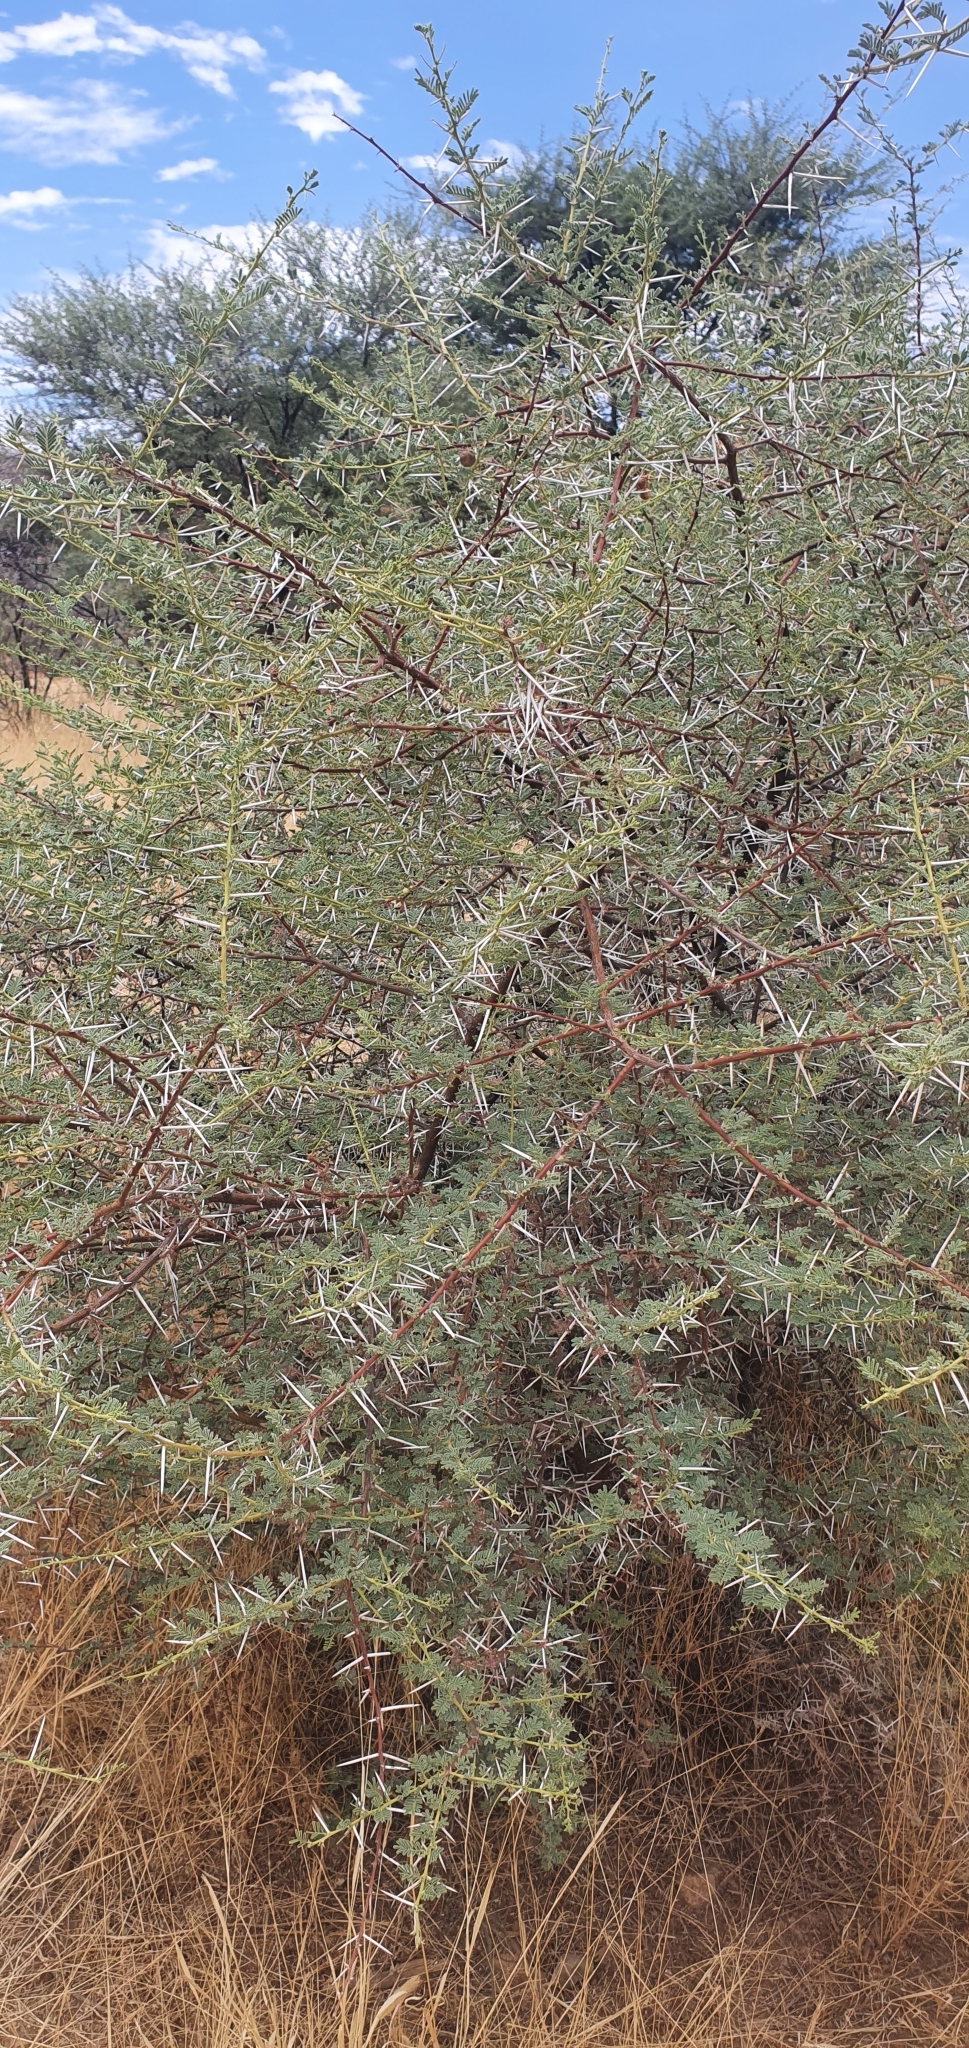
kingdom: Plantae
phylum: Tracheophyta
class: Magnoliopsida
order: Fabales
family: Fabaceae
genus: Vachellia
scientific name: Vachellia tortilis
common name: Umbrella thorn acacia
